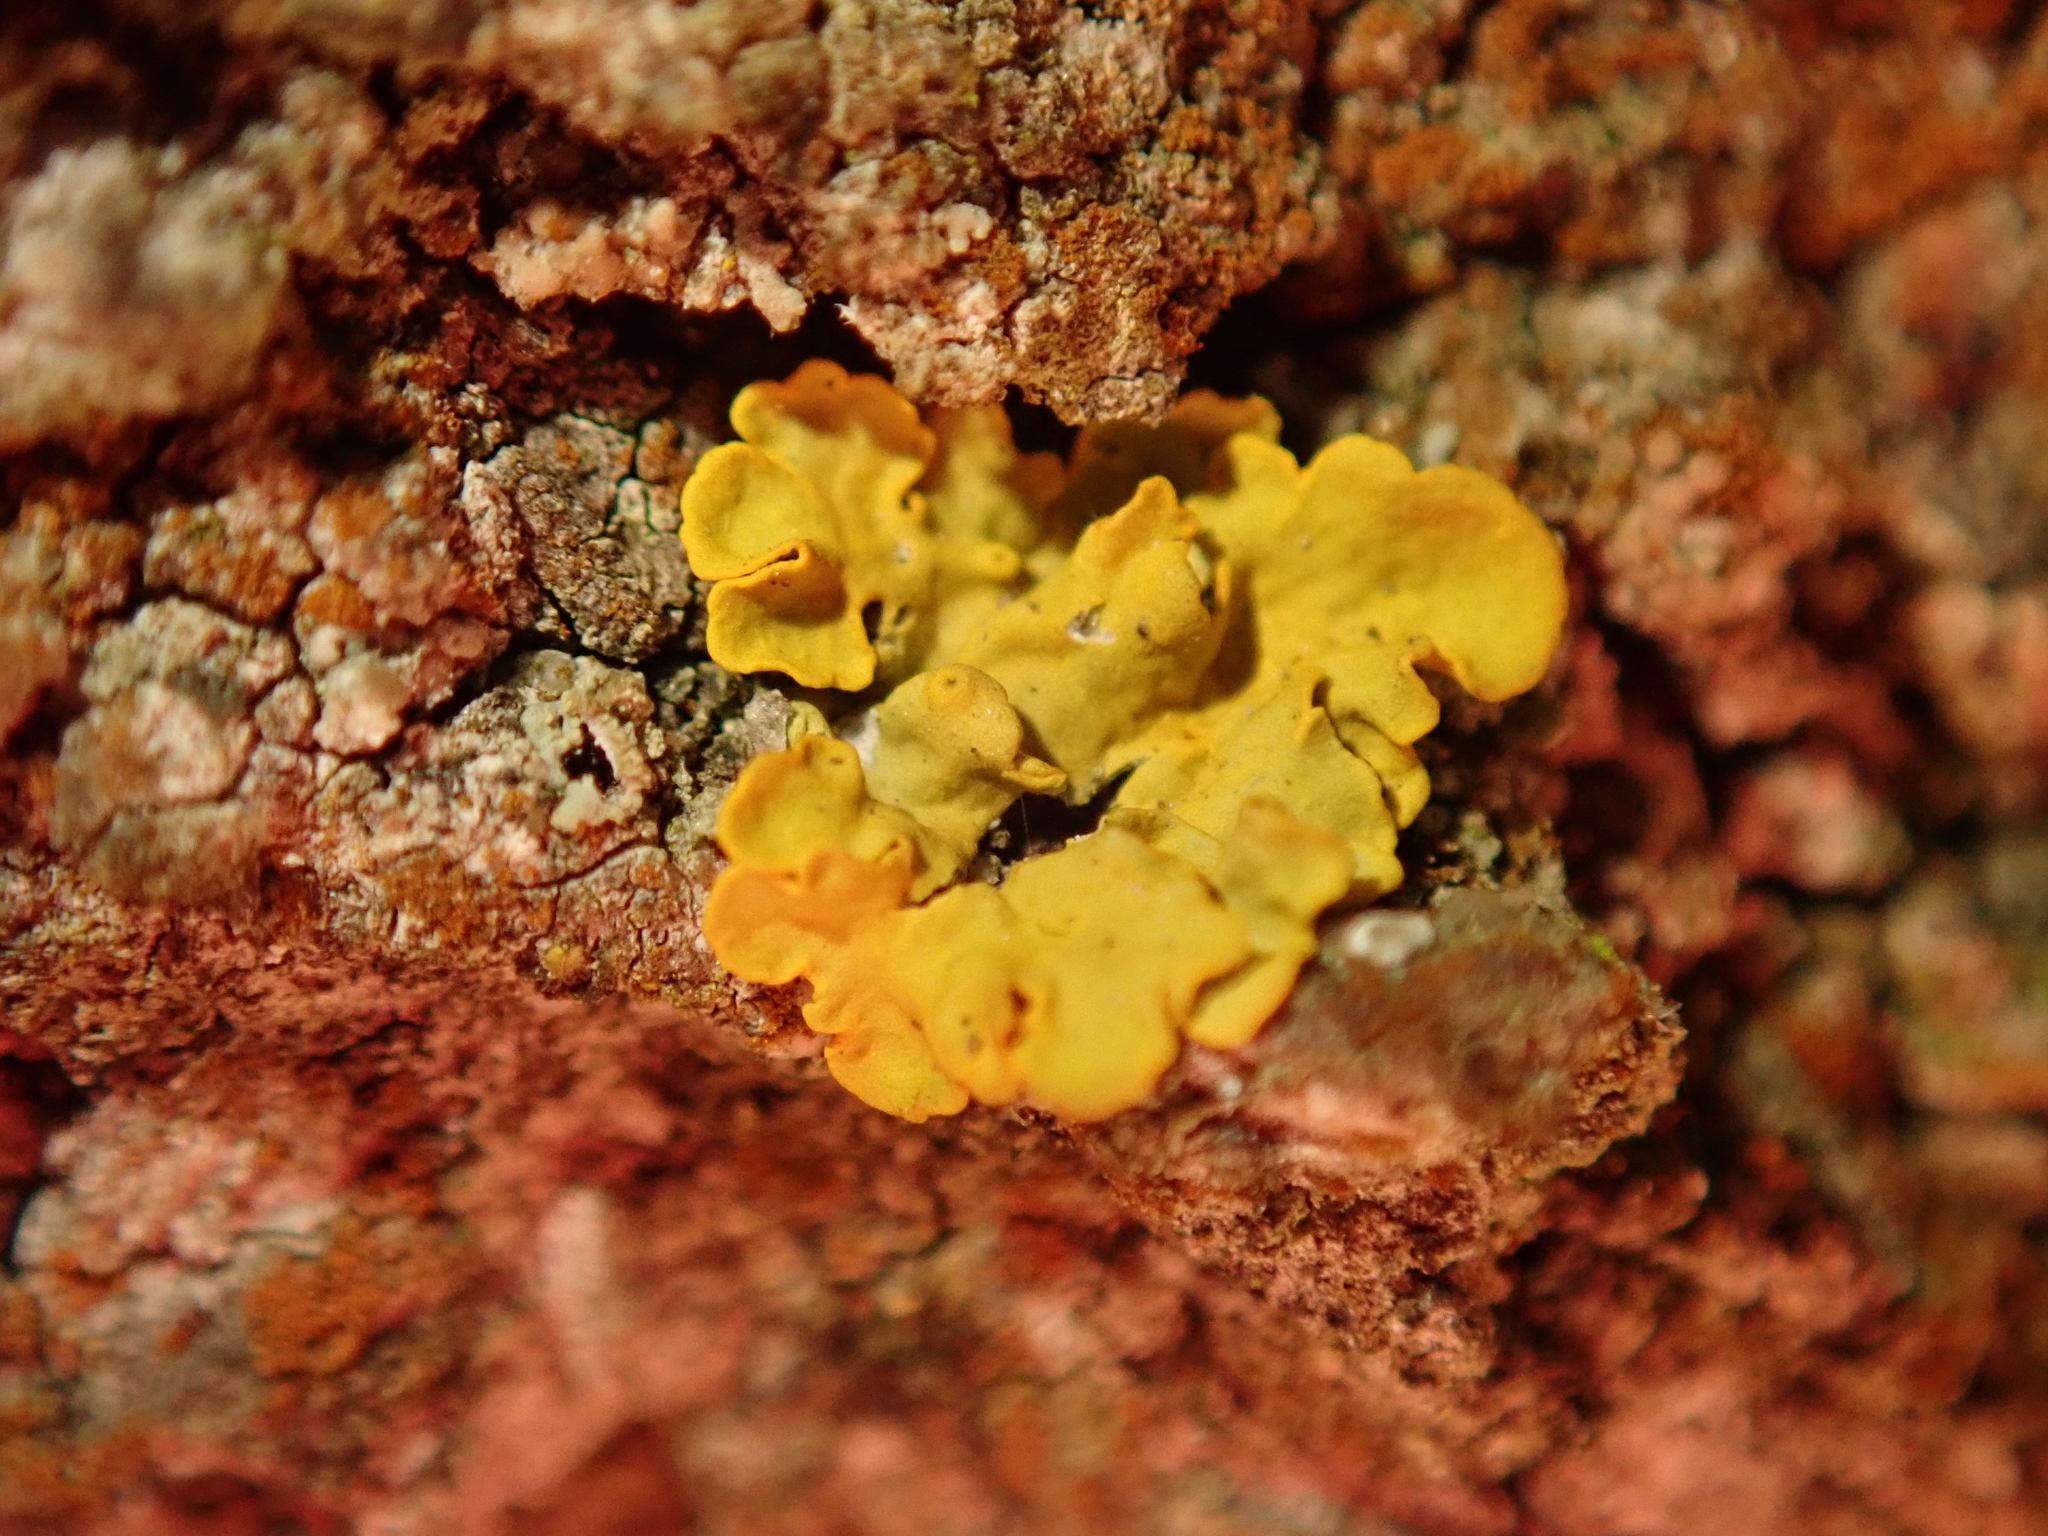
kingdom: Fungi
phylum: Ascomycota
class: Lecanoromycetes
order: Teloschistales
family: Teloschistaceae
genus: Xanthoria
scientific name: Xanthoria parietina
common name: Common orange lichen
